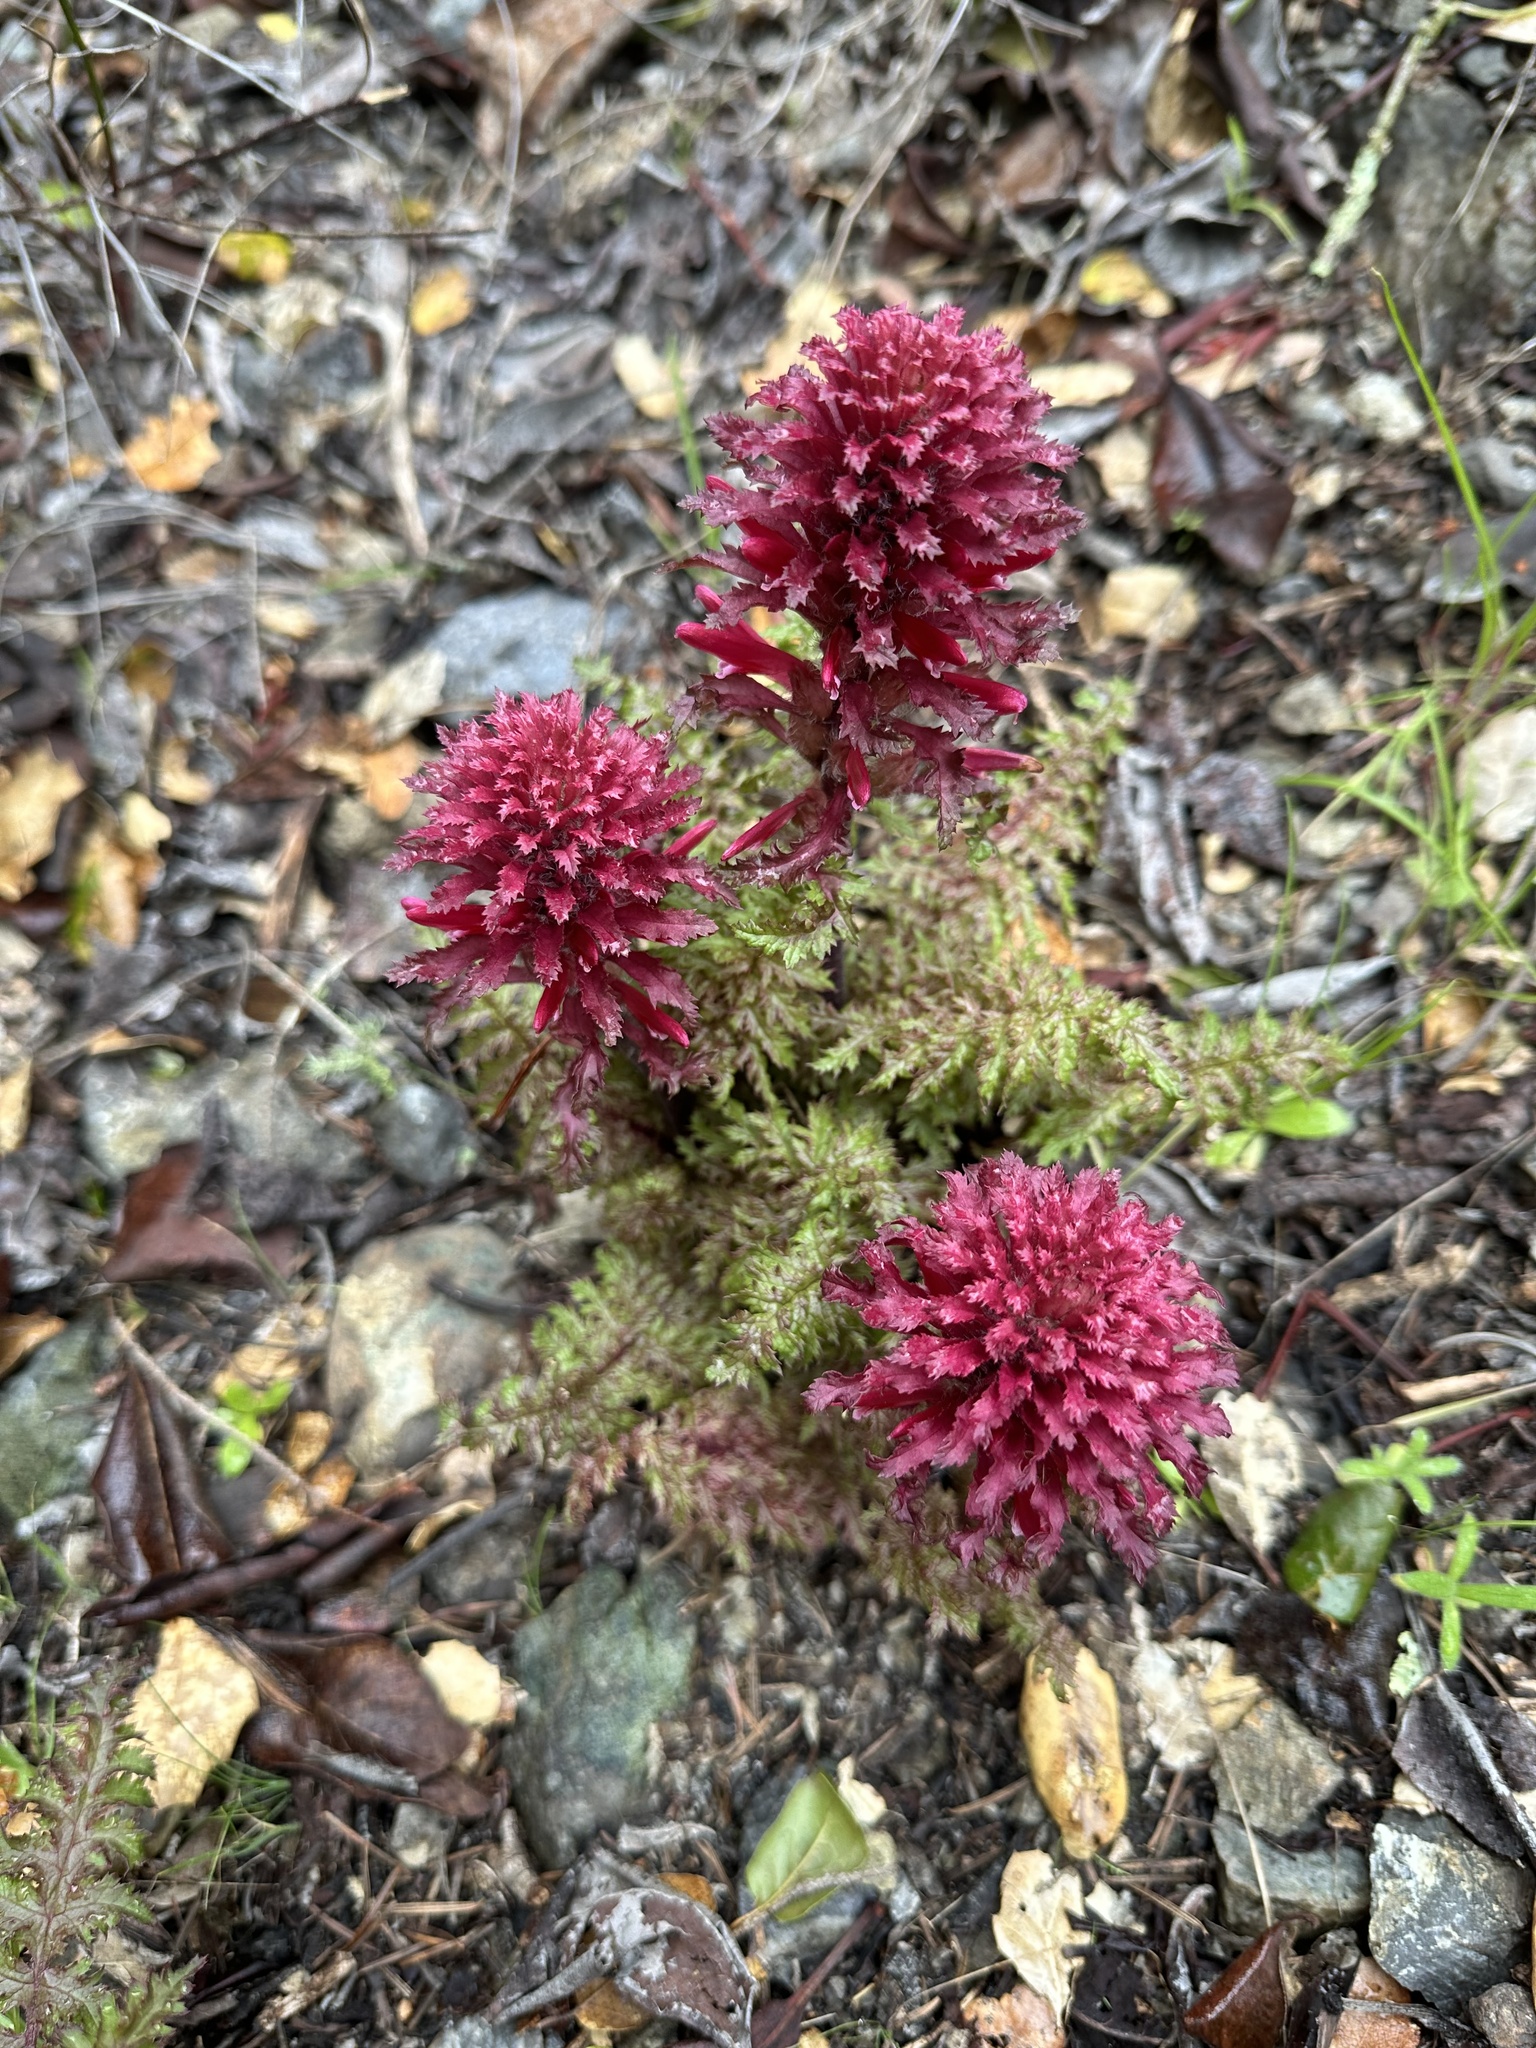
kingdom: Plantae
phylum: Tracheophyta
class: Magnoliopsida
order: Lamiales
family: Orobanchaceae
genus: Pedicularis
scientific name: Pedicularis densiflora
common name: Indian warrior
